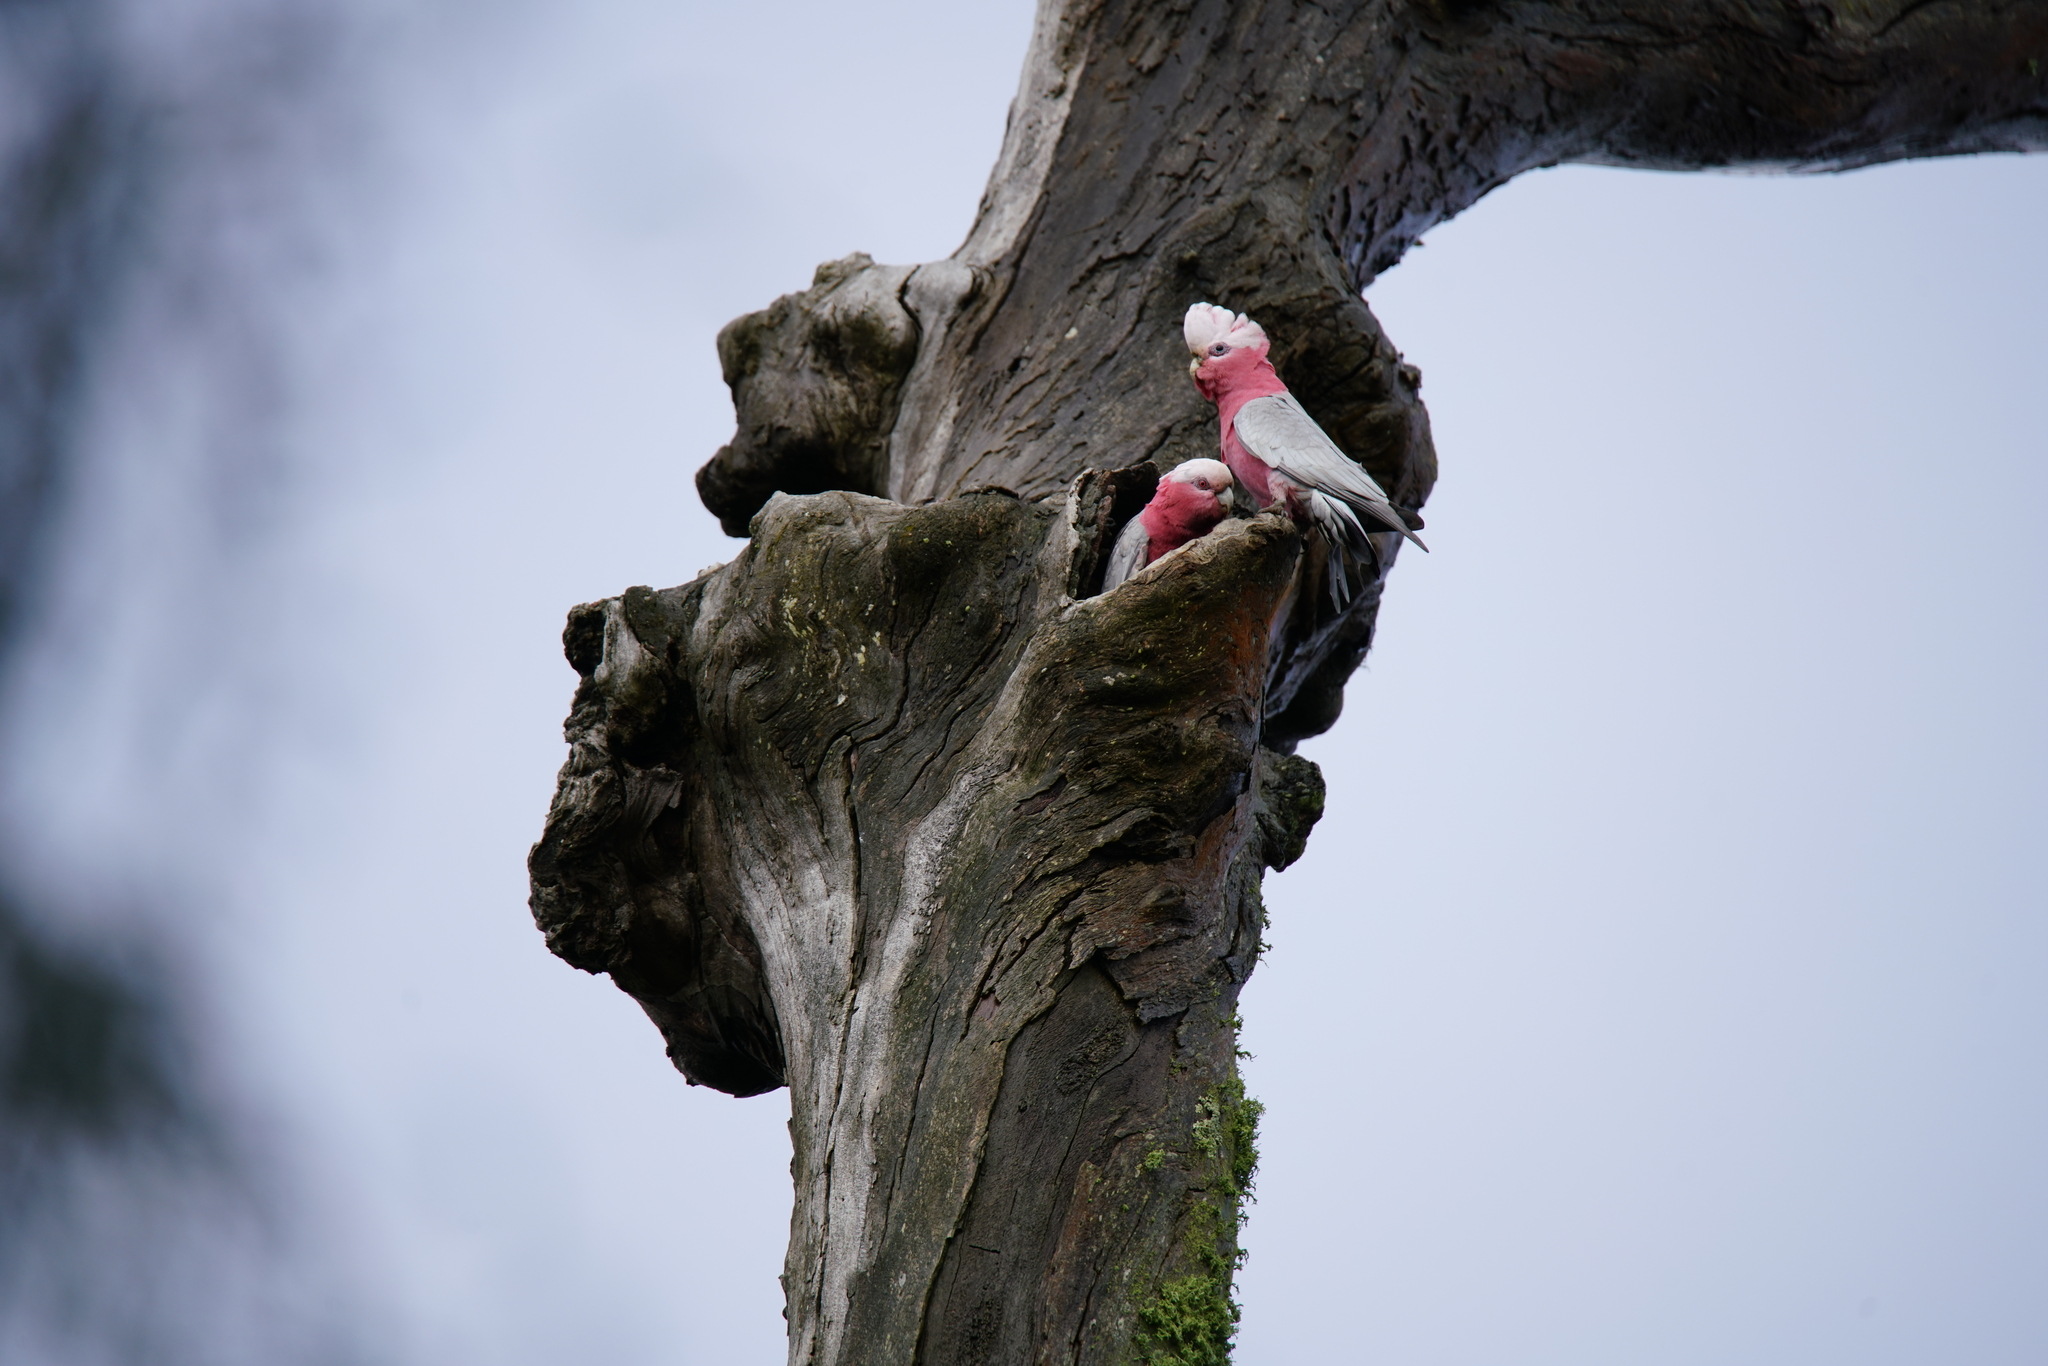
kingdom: Animalia
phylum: Chordata
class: Aves
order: Psittaciformes
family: Psittacidae
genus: Eolophus
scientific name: Eolophus roseicapilla
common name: Galah
